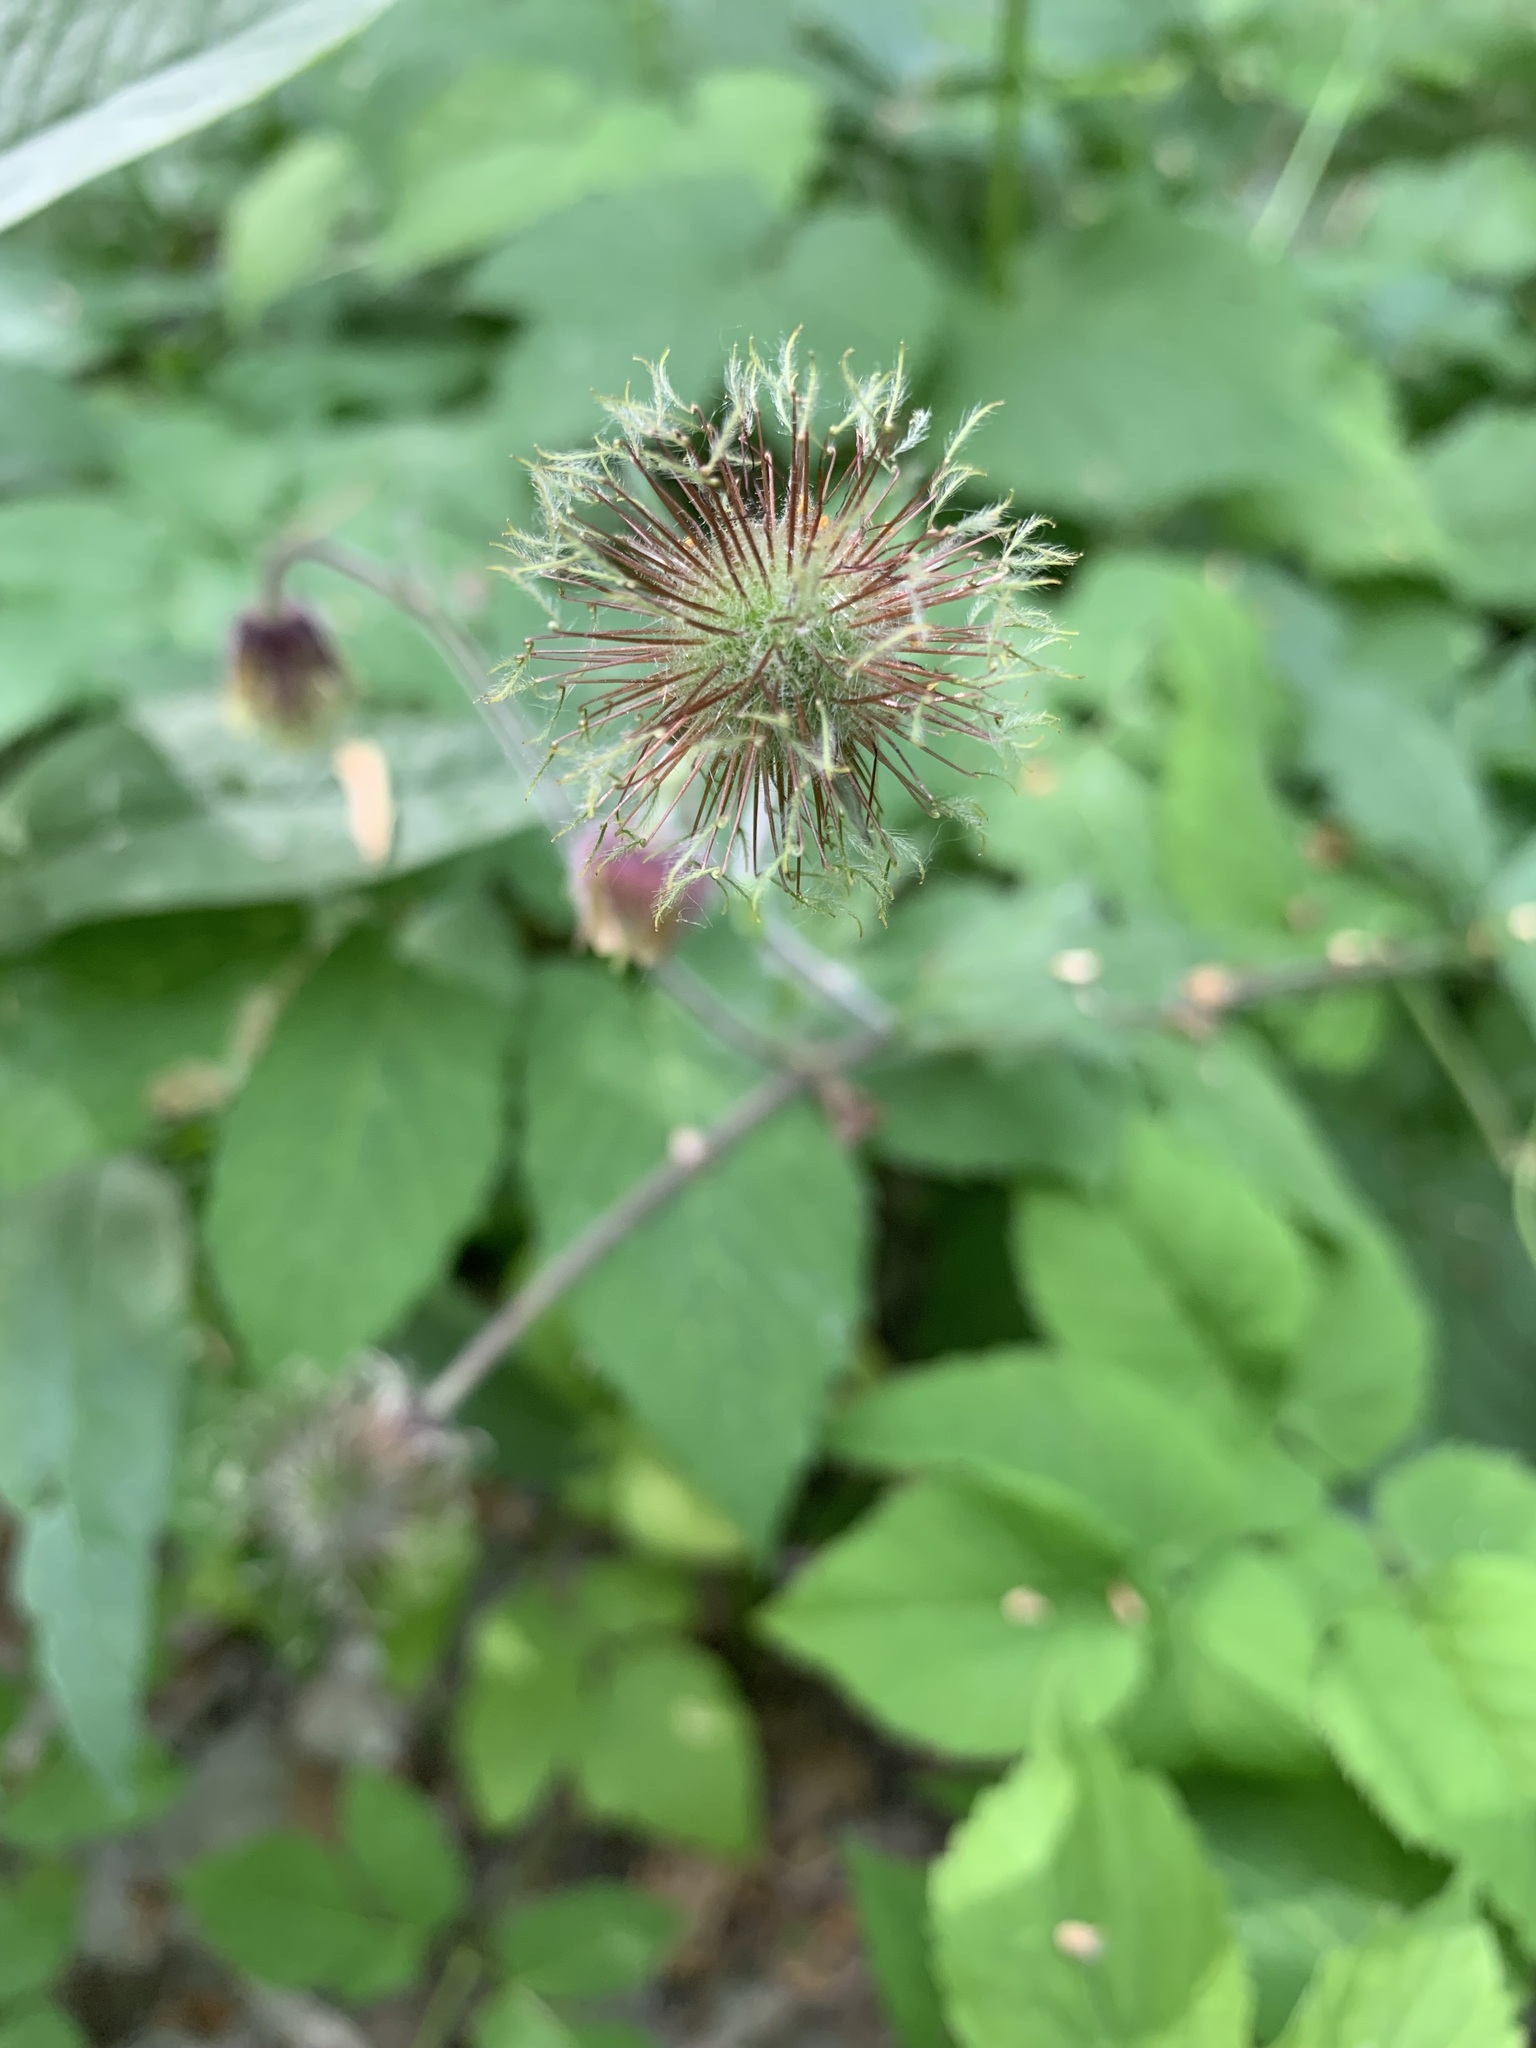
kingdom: Plantae
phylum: Tracheophyta
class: Magnoliopsida
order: Rosales
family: Rosaceae
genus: Geum
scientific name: Geum rivale
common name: Water avens
